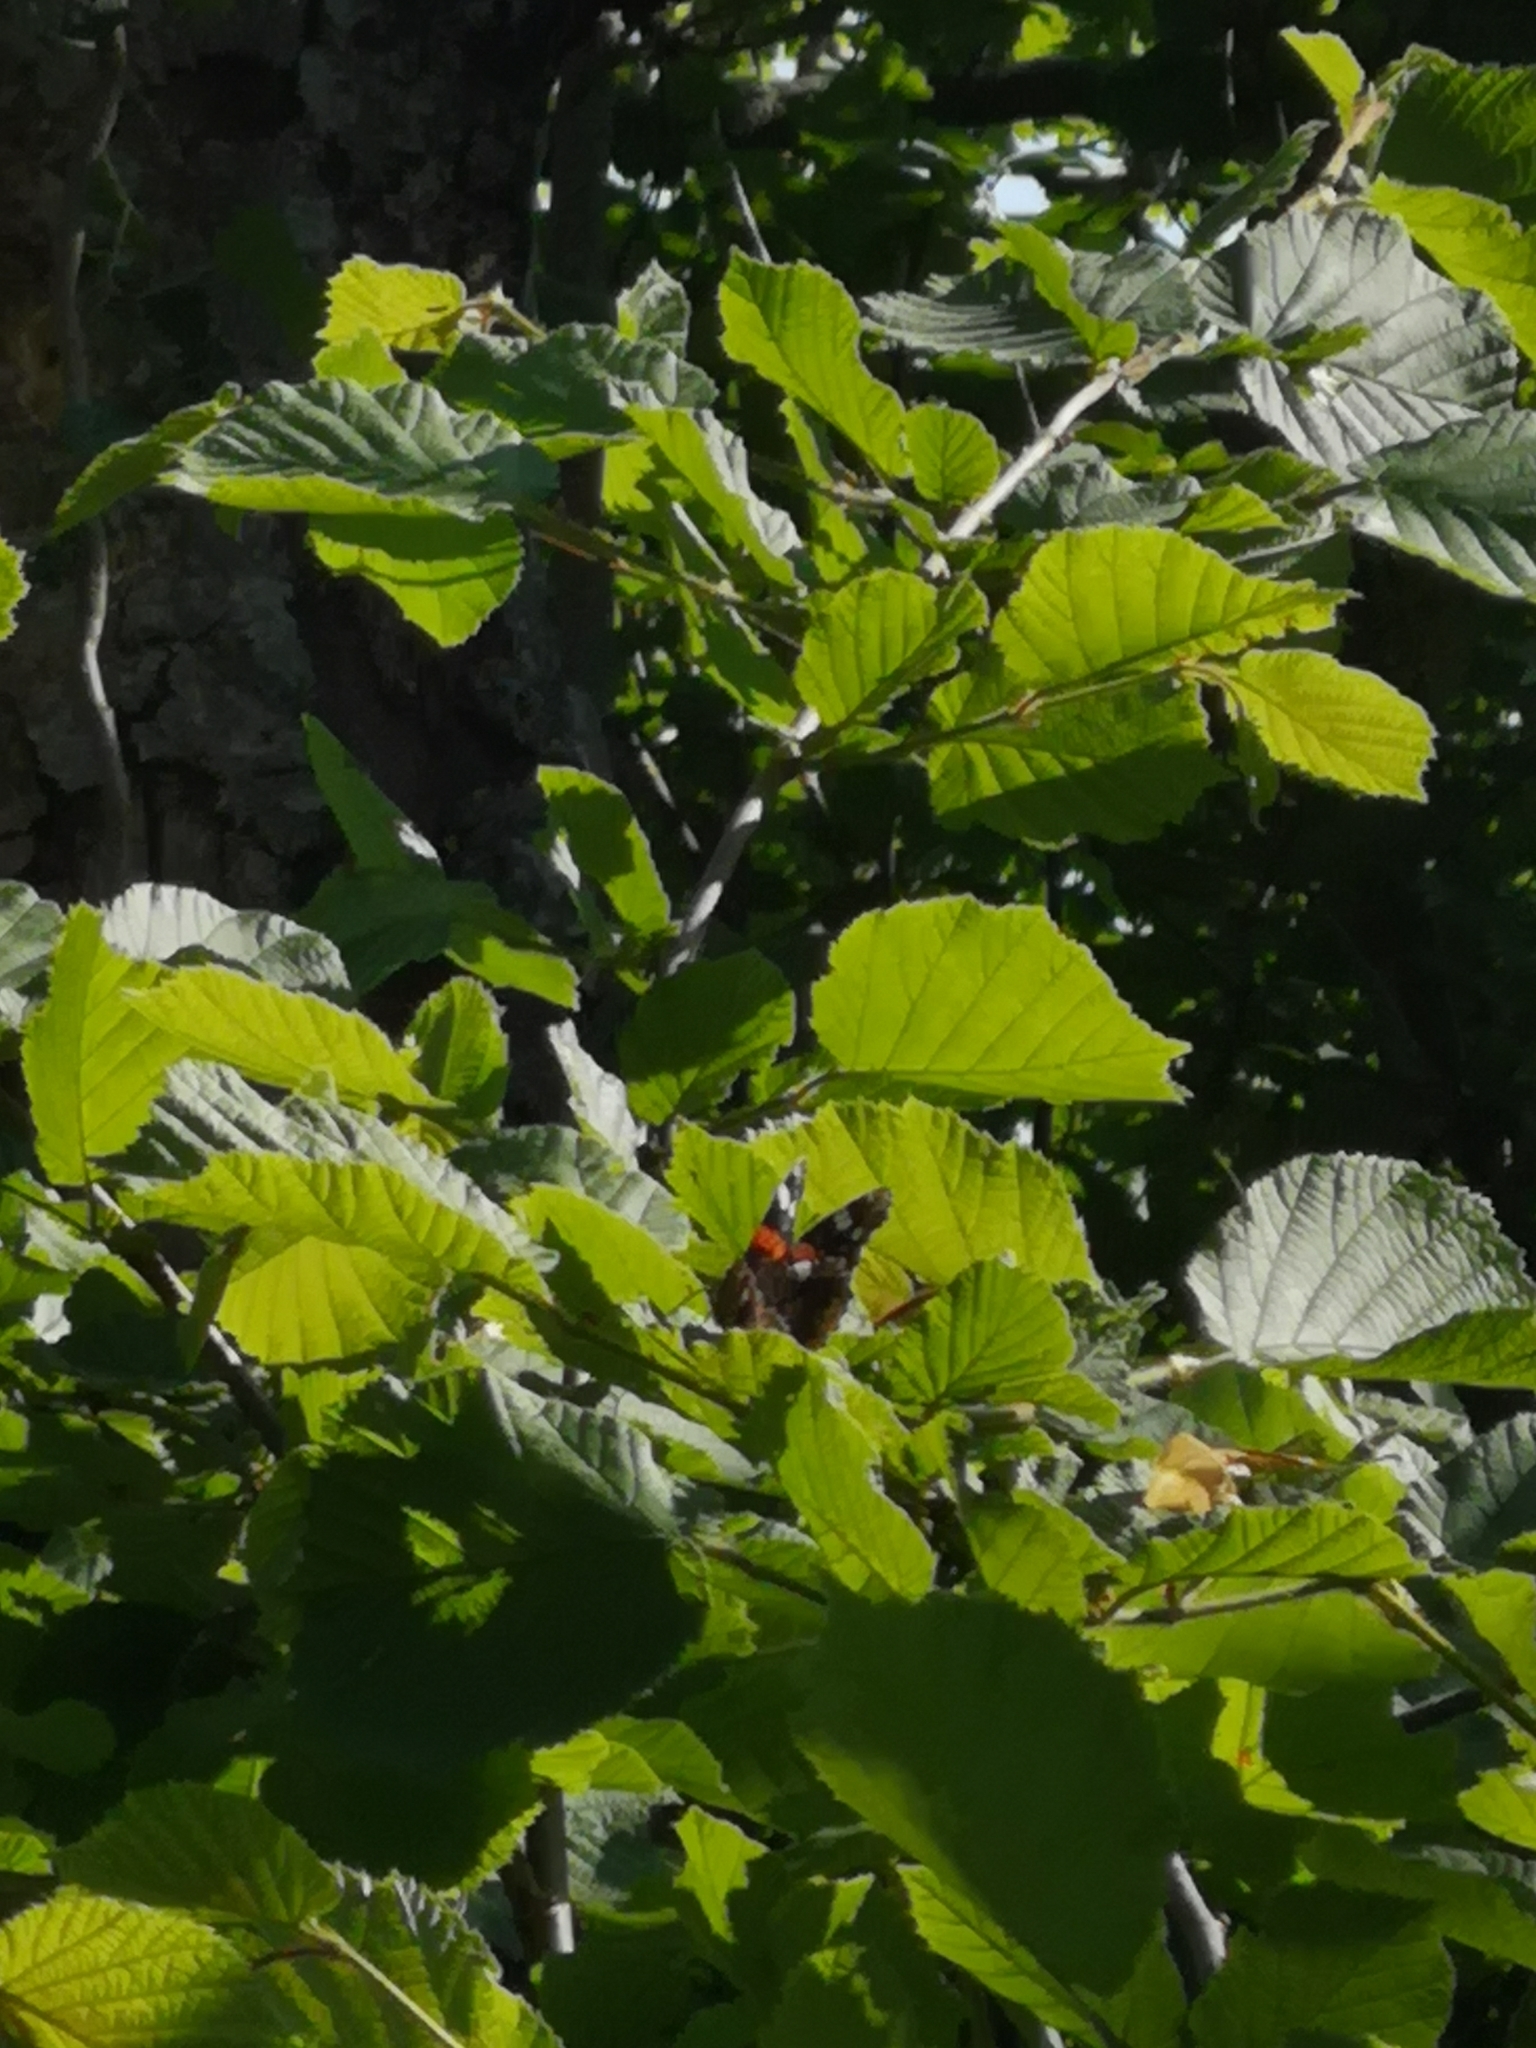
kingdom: Animalia
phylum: Arthropoda
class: Insecta
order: Lepidoptera
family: Nymphalidae
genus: Vanessa
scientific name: Vanessa atalanta
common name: Red admiral
